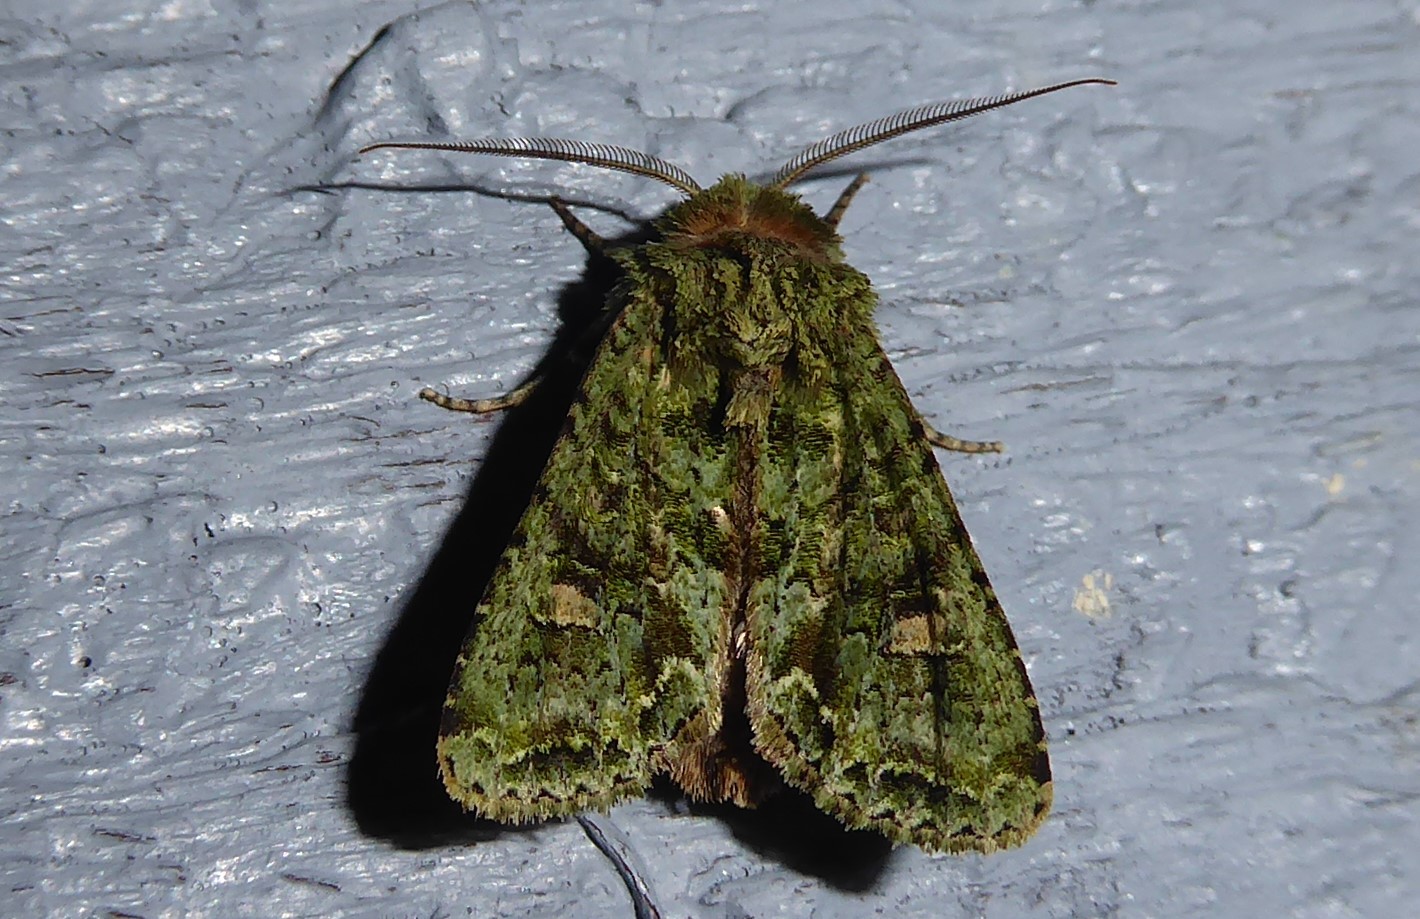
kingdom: Animalia
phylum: Arthropoda
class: Insecta
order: Lepidoptera
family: Noctuidae
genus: Ichneutica
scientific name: Ichneutica
